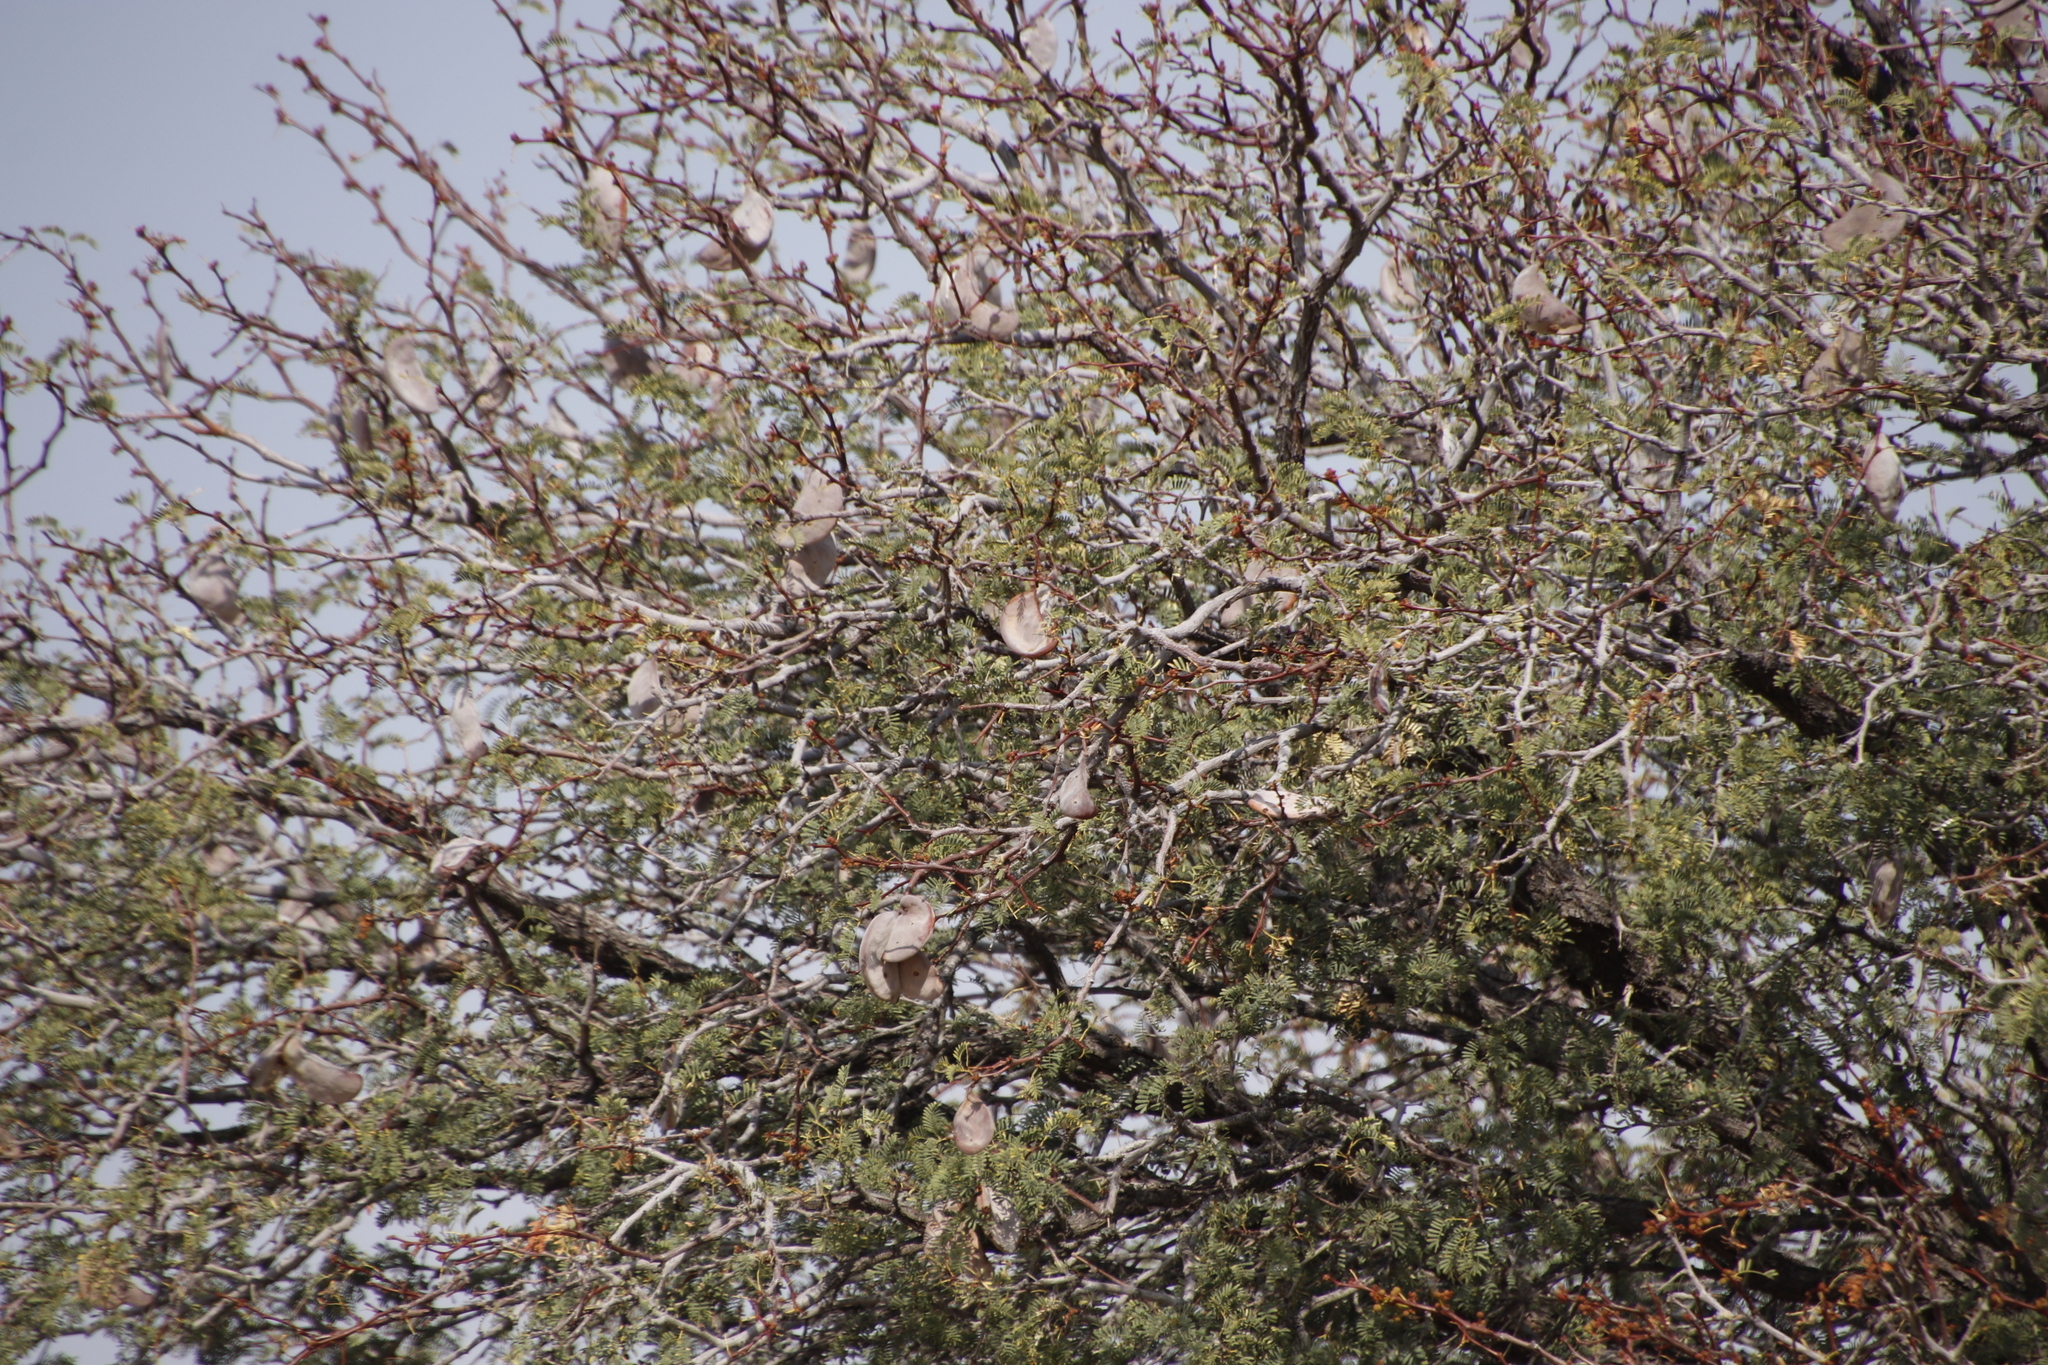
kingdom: Plantae
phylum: Tracheophyta
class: Magnoliopsida
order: Fabales
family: Fabaceae
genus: Vachellia
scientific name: Vachellia erioloba
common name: Camel thorn
